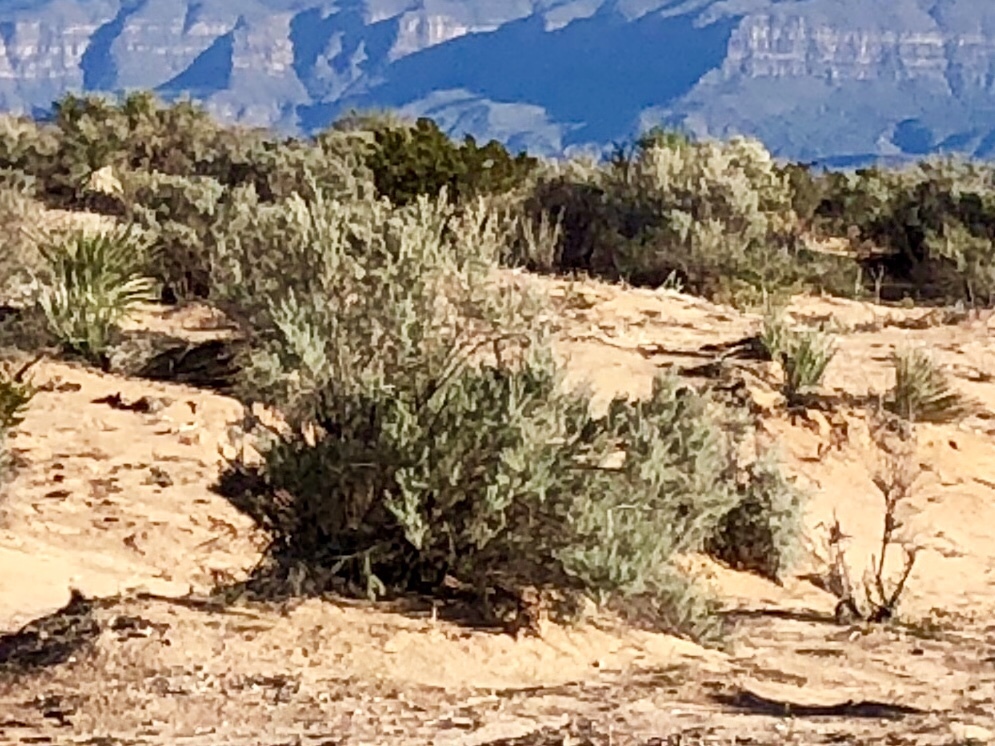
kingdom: Plantae
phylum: Tracheophyta
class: Magnoliopsida
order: Caryophyllales
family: Amaranthaceae
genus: Krascheninnikovia
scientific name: Krascheninnikovia lanata
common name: Winterfat
